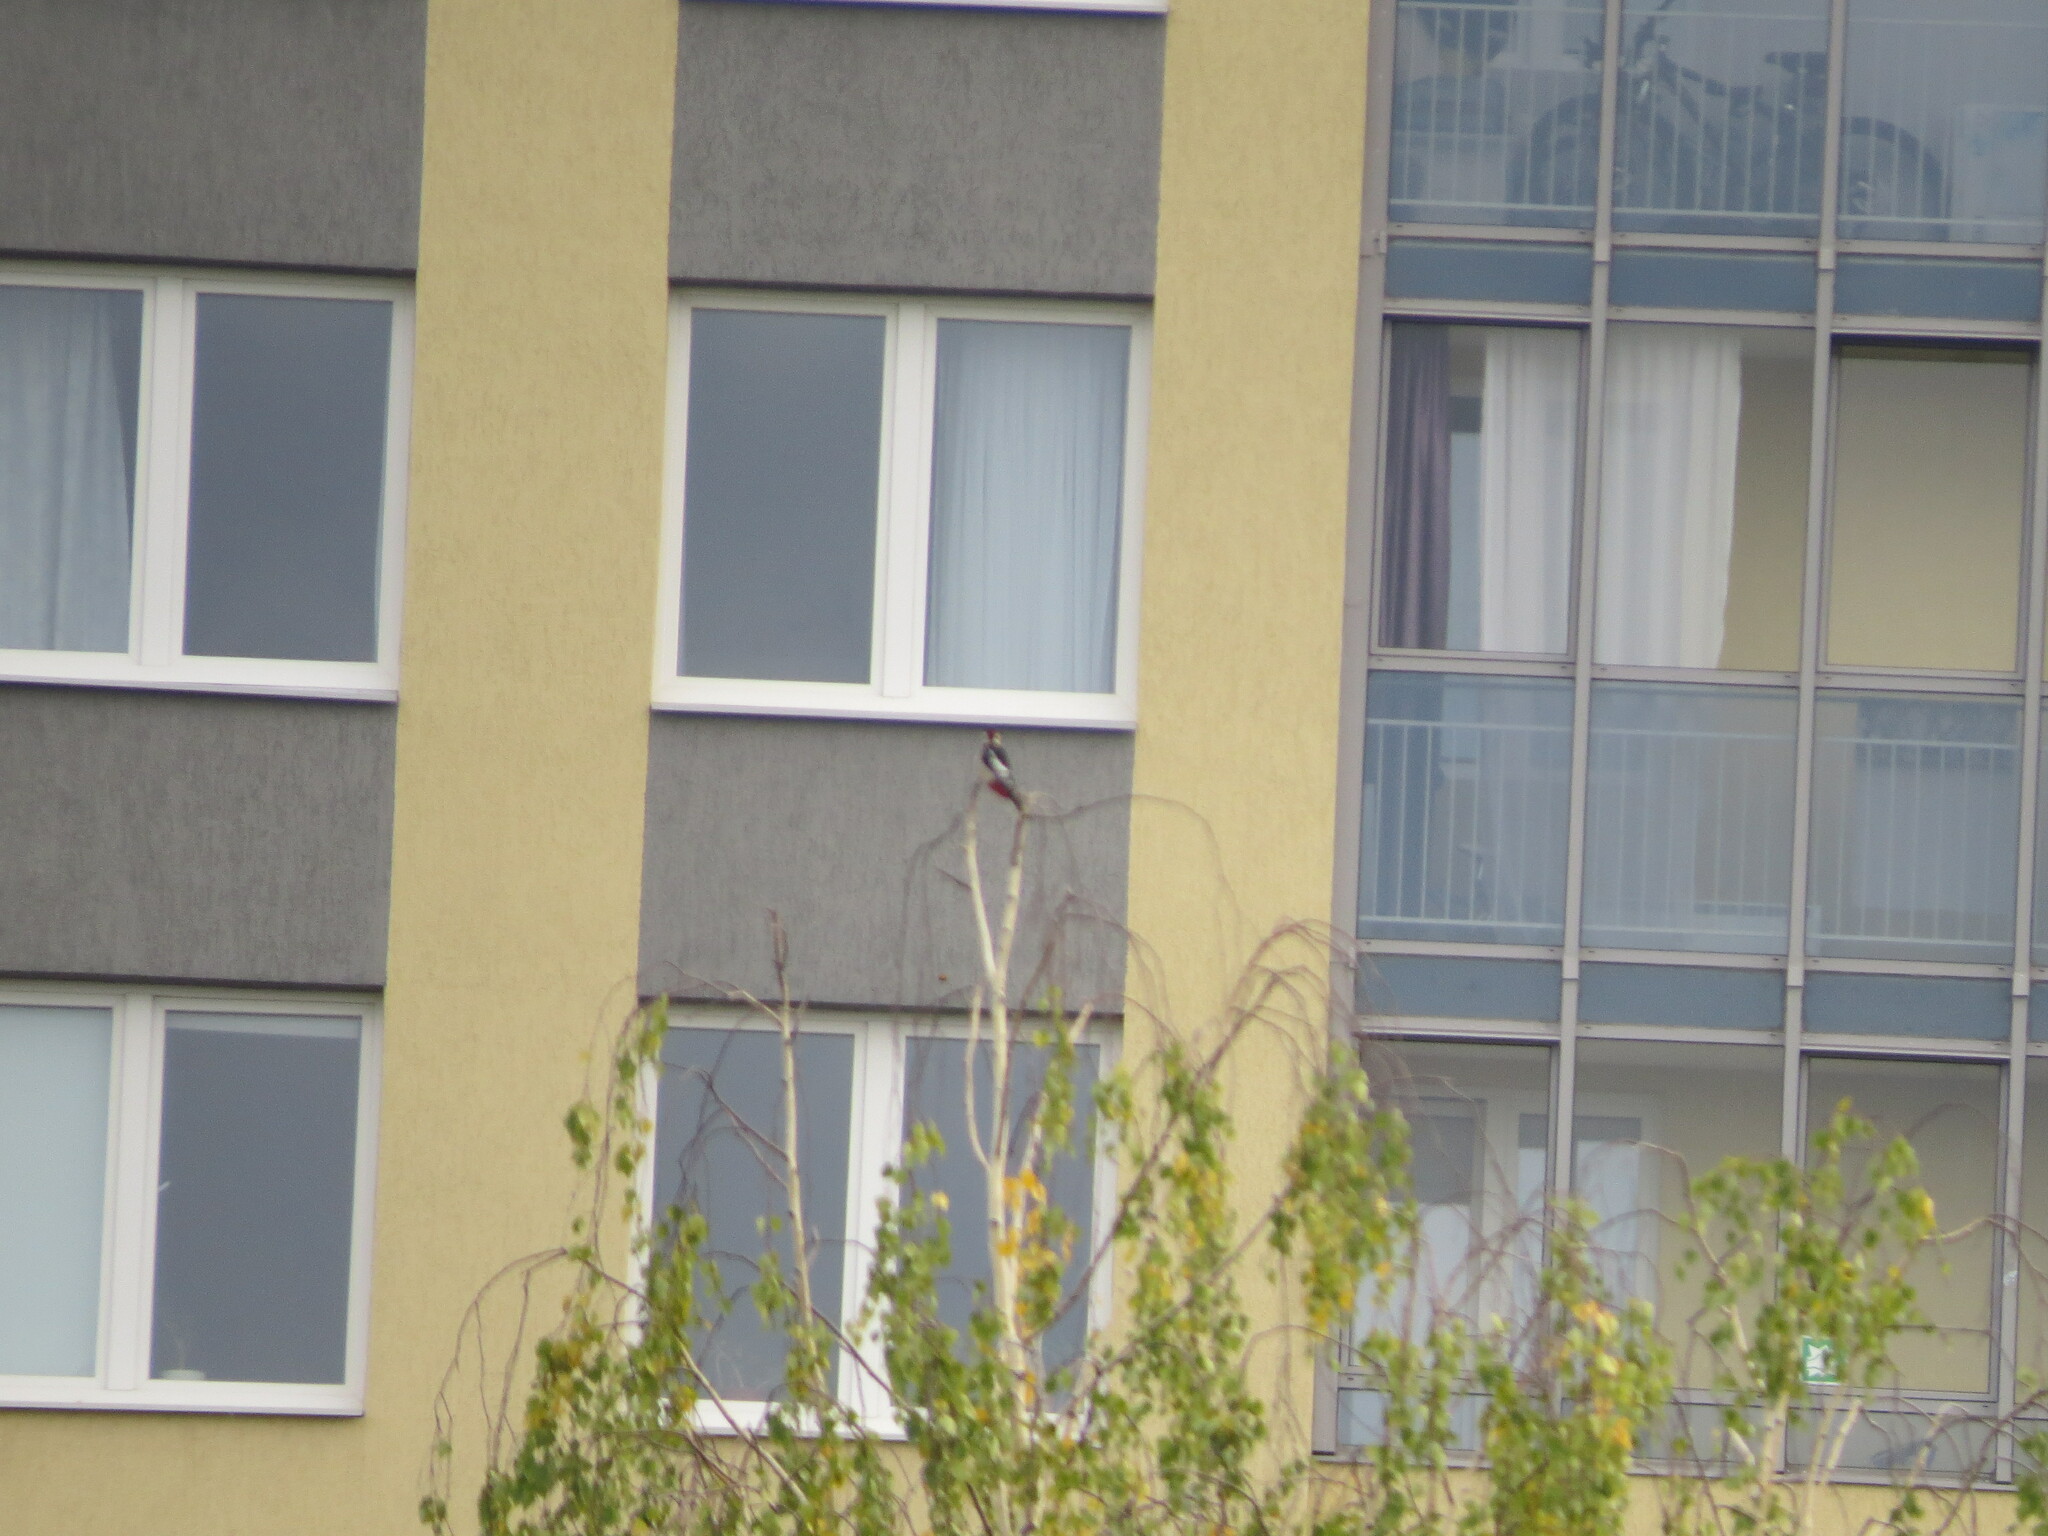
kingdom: Animalia
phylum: Chordata
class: Aves
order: Piciformes
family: Picidae
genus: Dendrocopos
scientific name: Dendrocopos major
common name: Great spotted woodpecker
